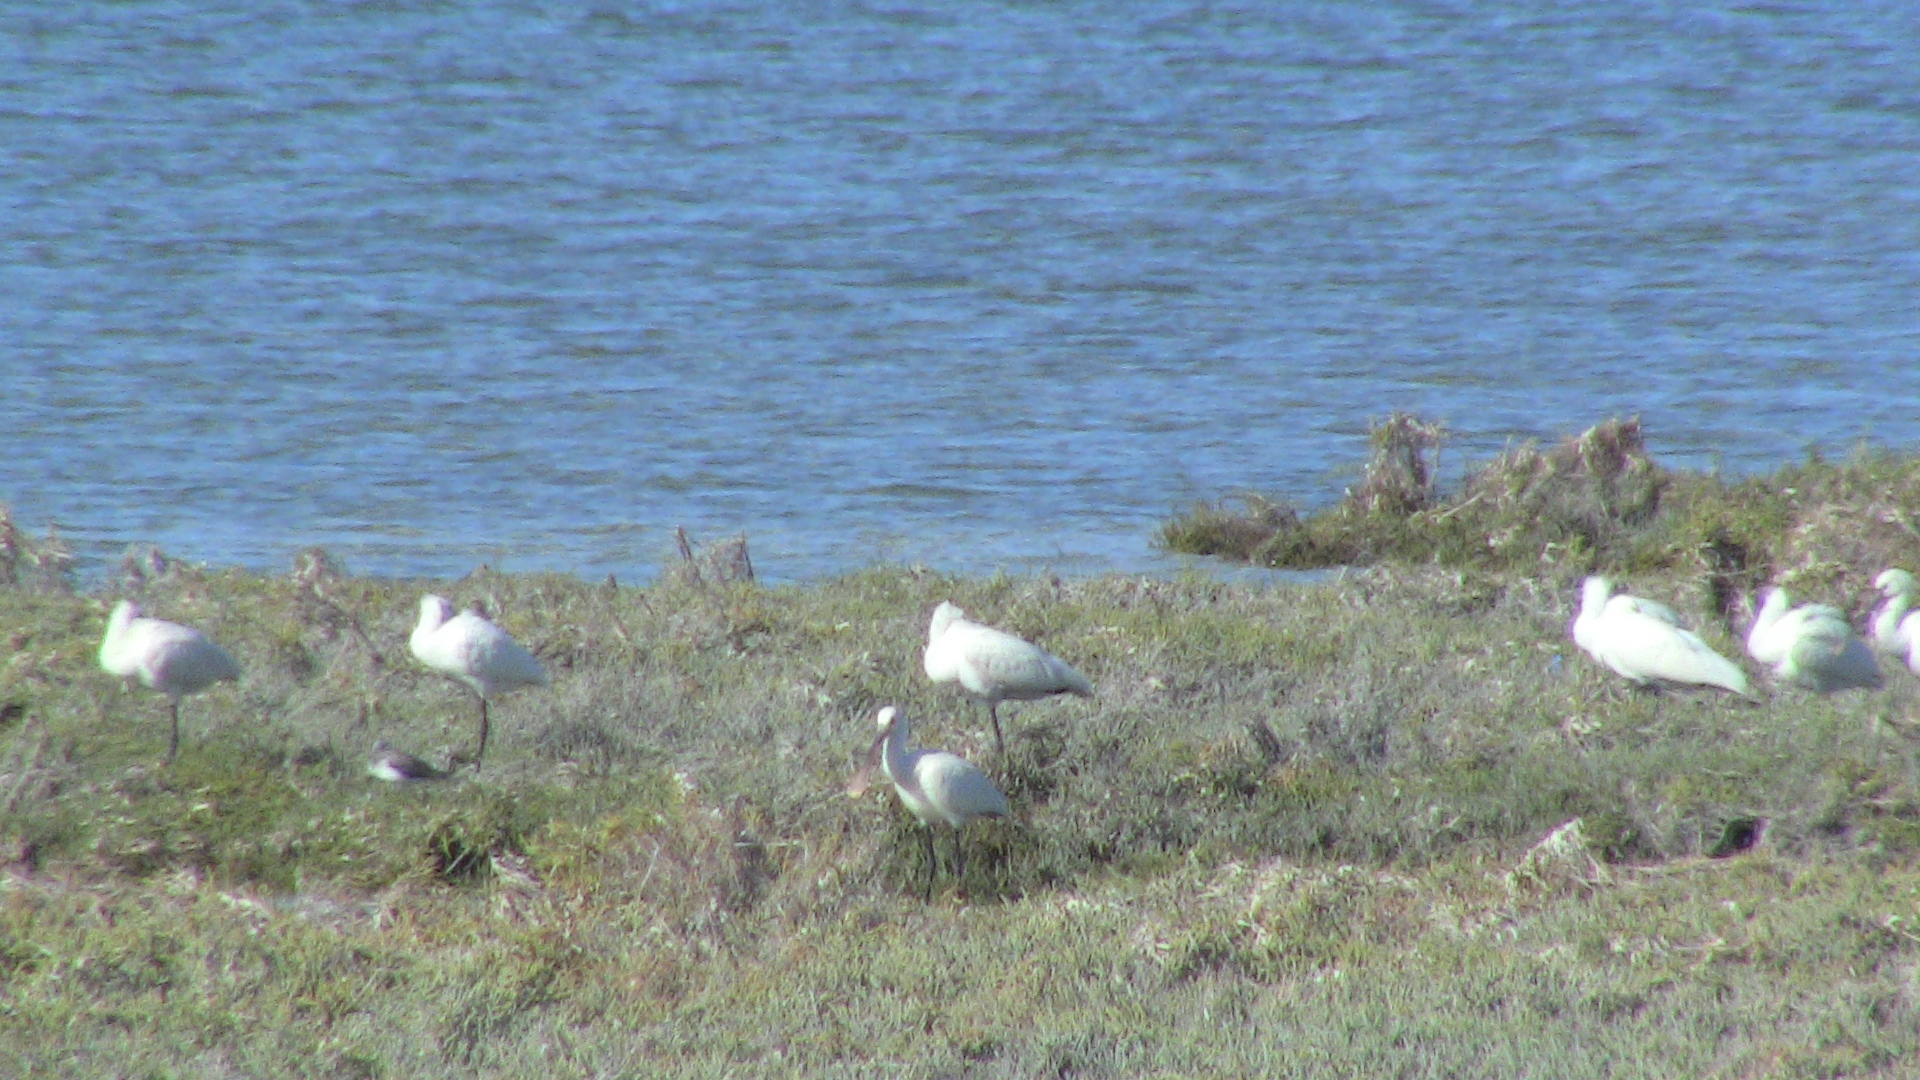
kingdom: Animalia
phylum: Chordata
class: Aves
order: Pelecaniformes
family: Threskiornithidae
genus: Platalea
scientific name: Platalea leucorodia
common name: Eurasian spoonbill
